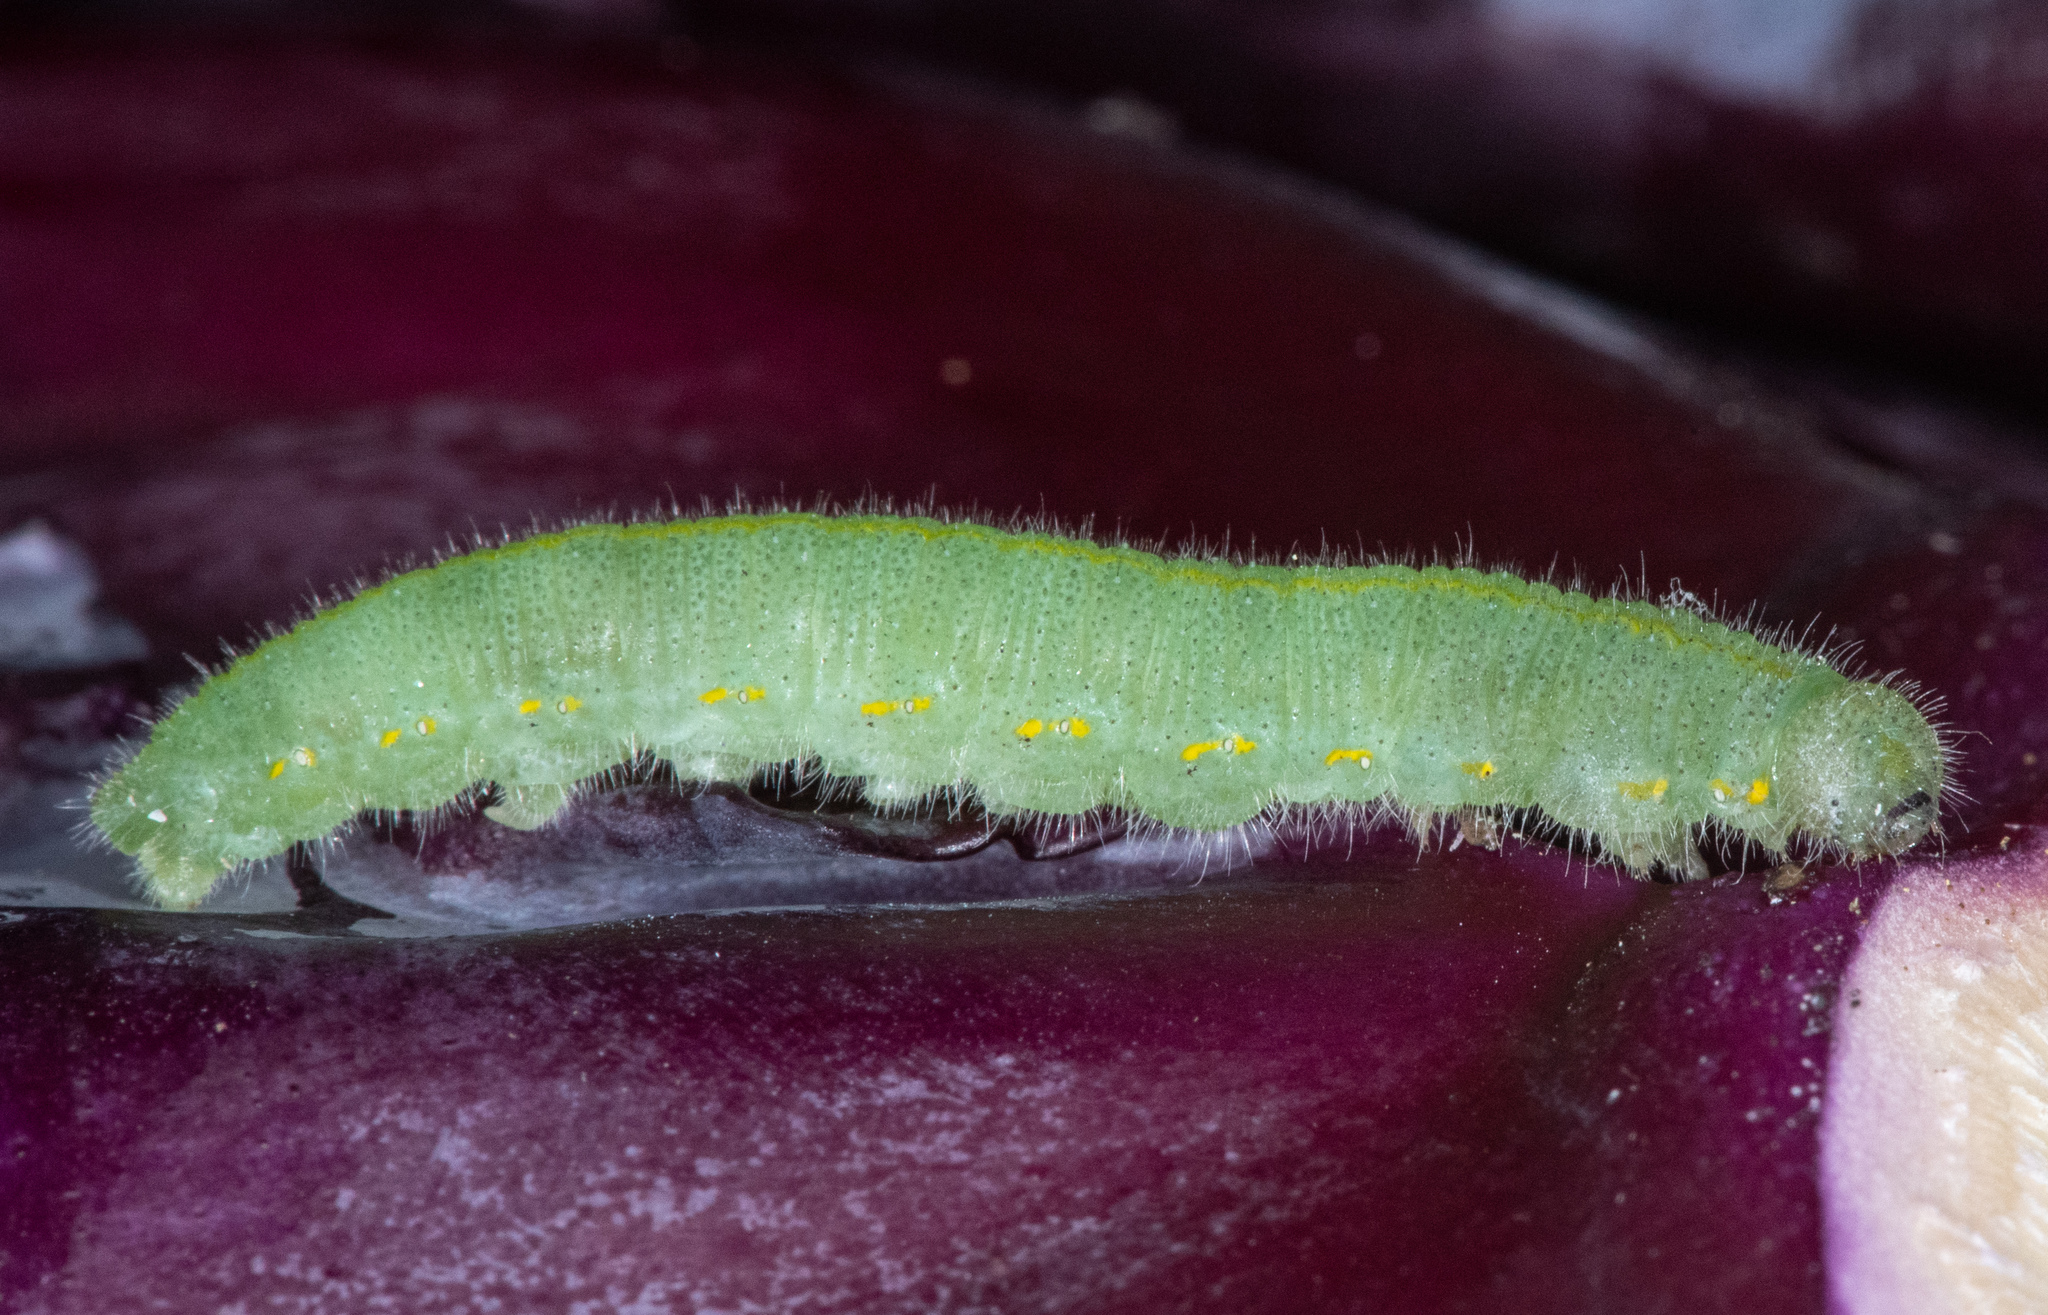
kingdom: Animalia
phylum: Arthropoda
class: Insecta
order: Lepidoptera
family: Pieridae
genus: Pieris
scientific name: Pieris rapae
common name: Small white
